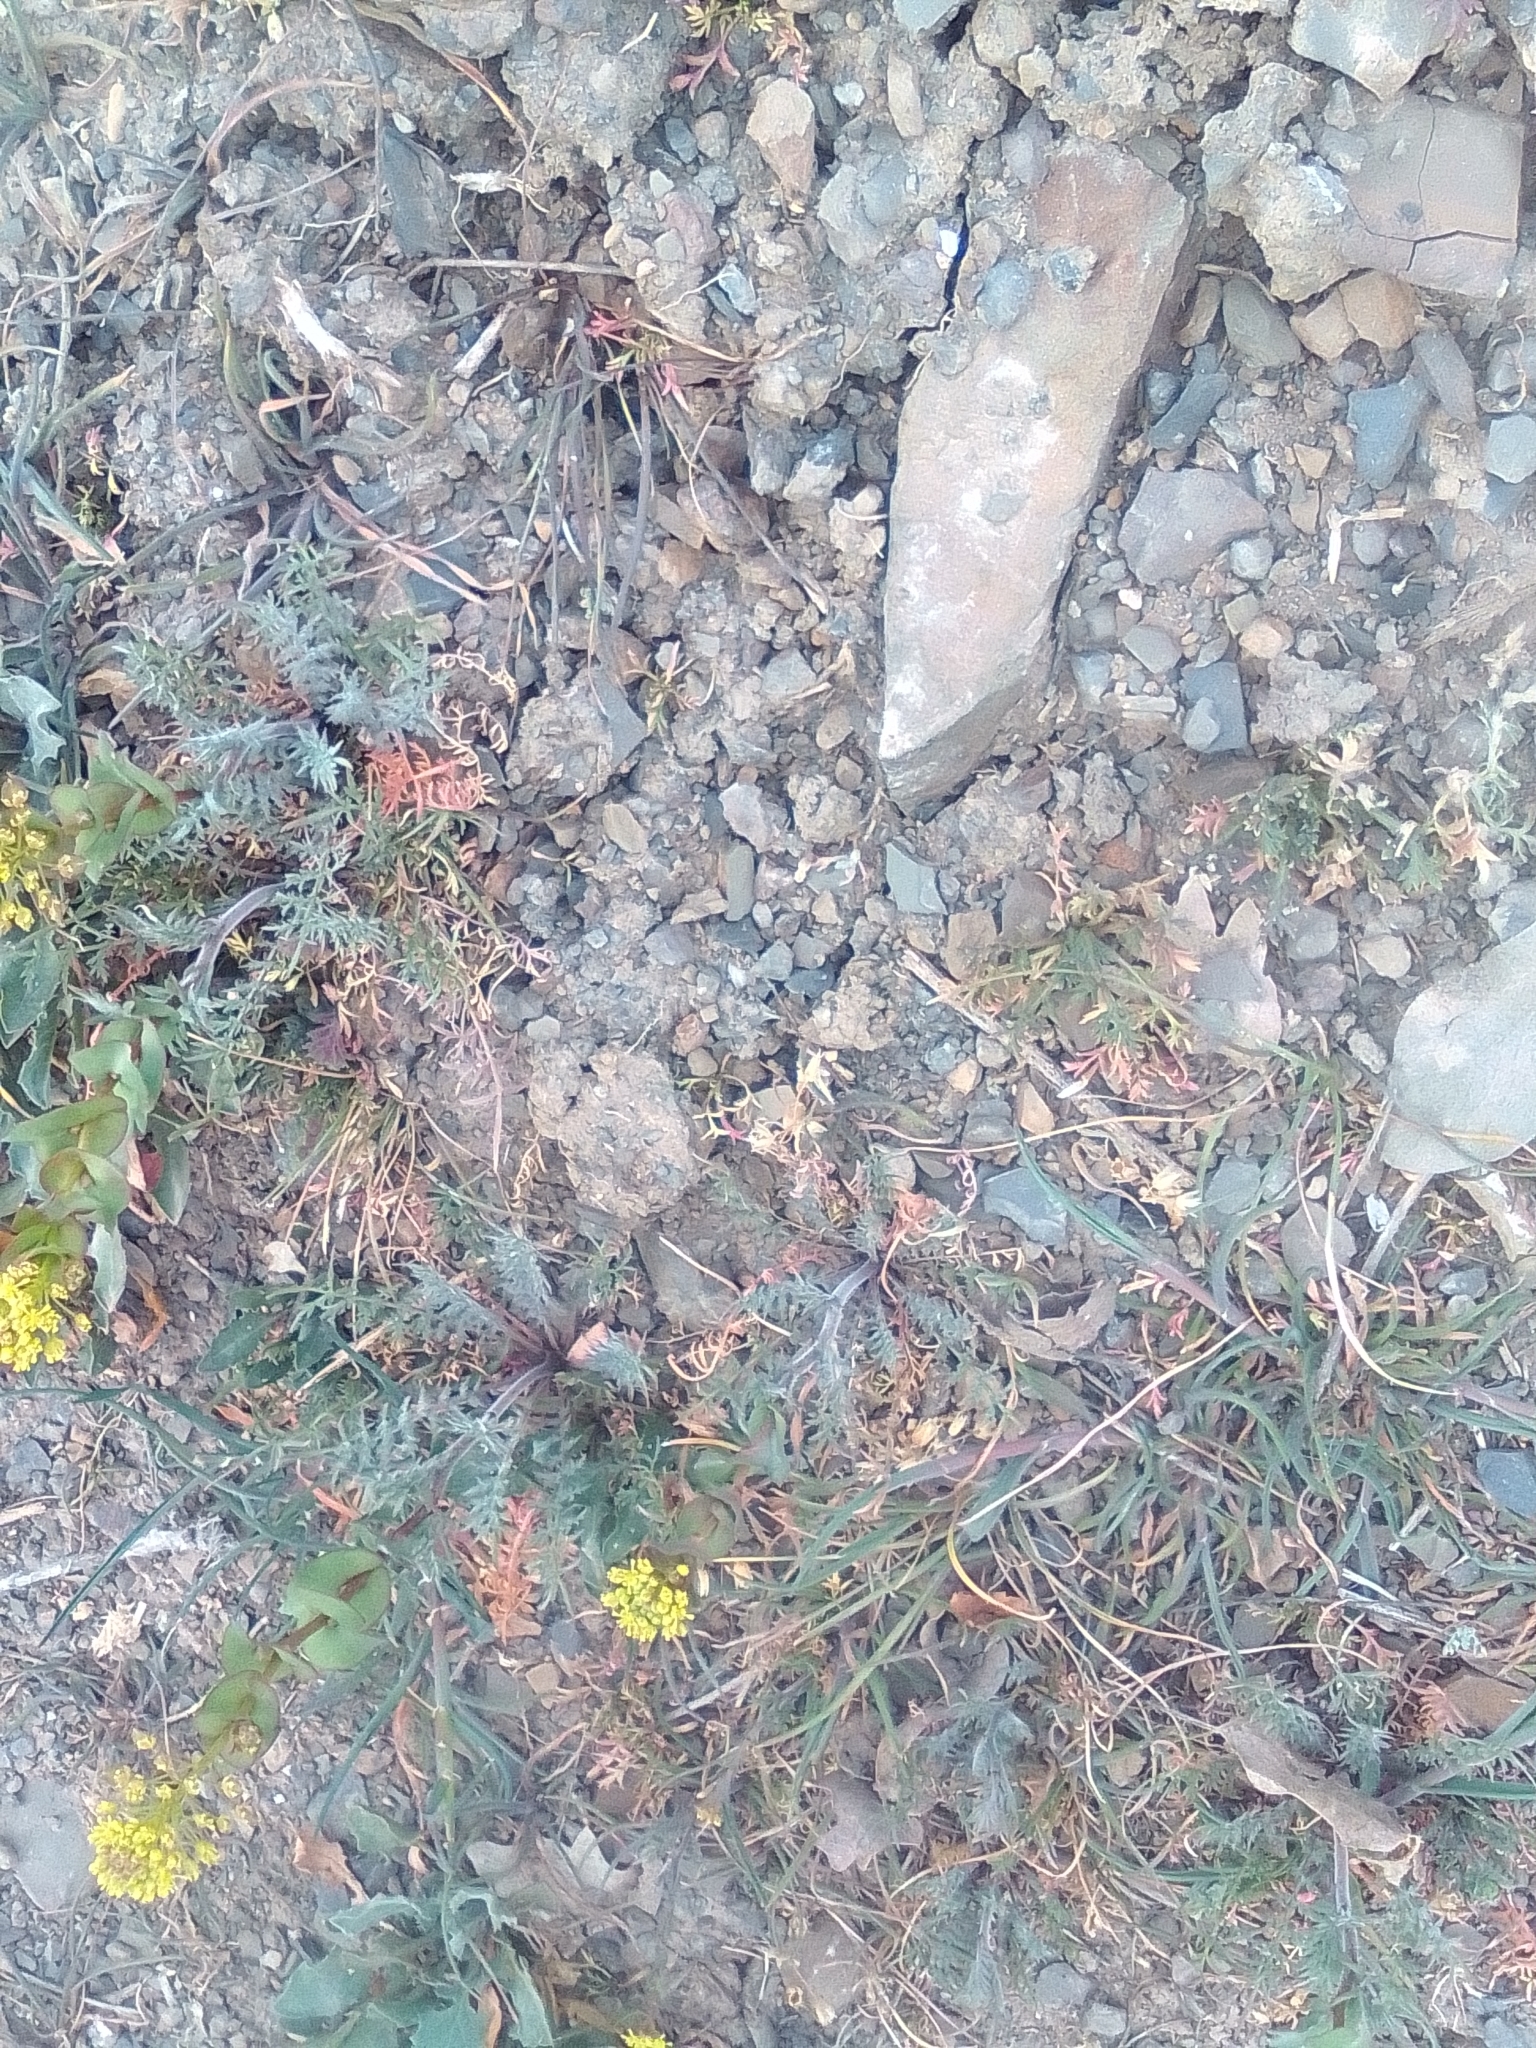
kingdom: Plantae
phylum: Tracheophyta
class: Magnoliopsida
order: Brassicales
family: Brassicaceae
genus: Lepidium
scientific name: Lepidium perfoliatum
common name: Perfoliate pepperwort
